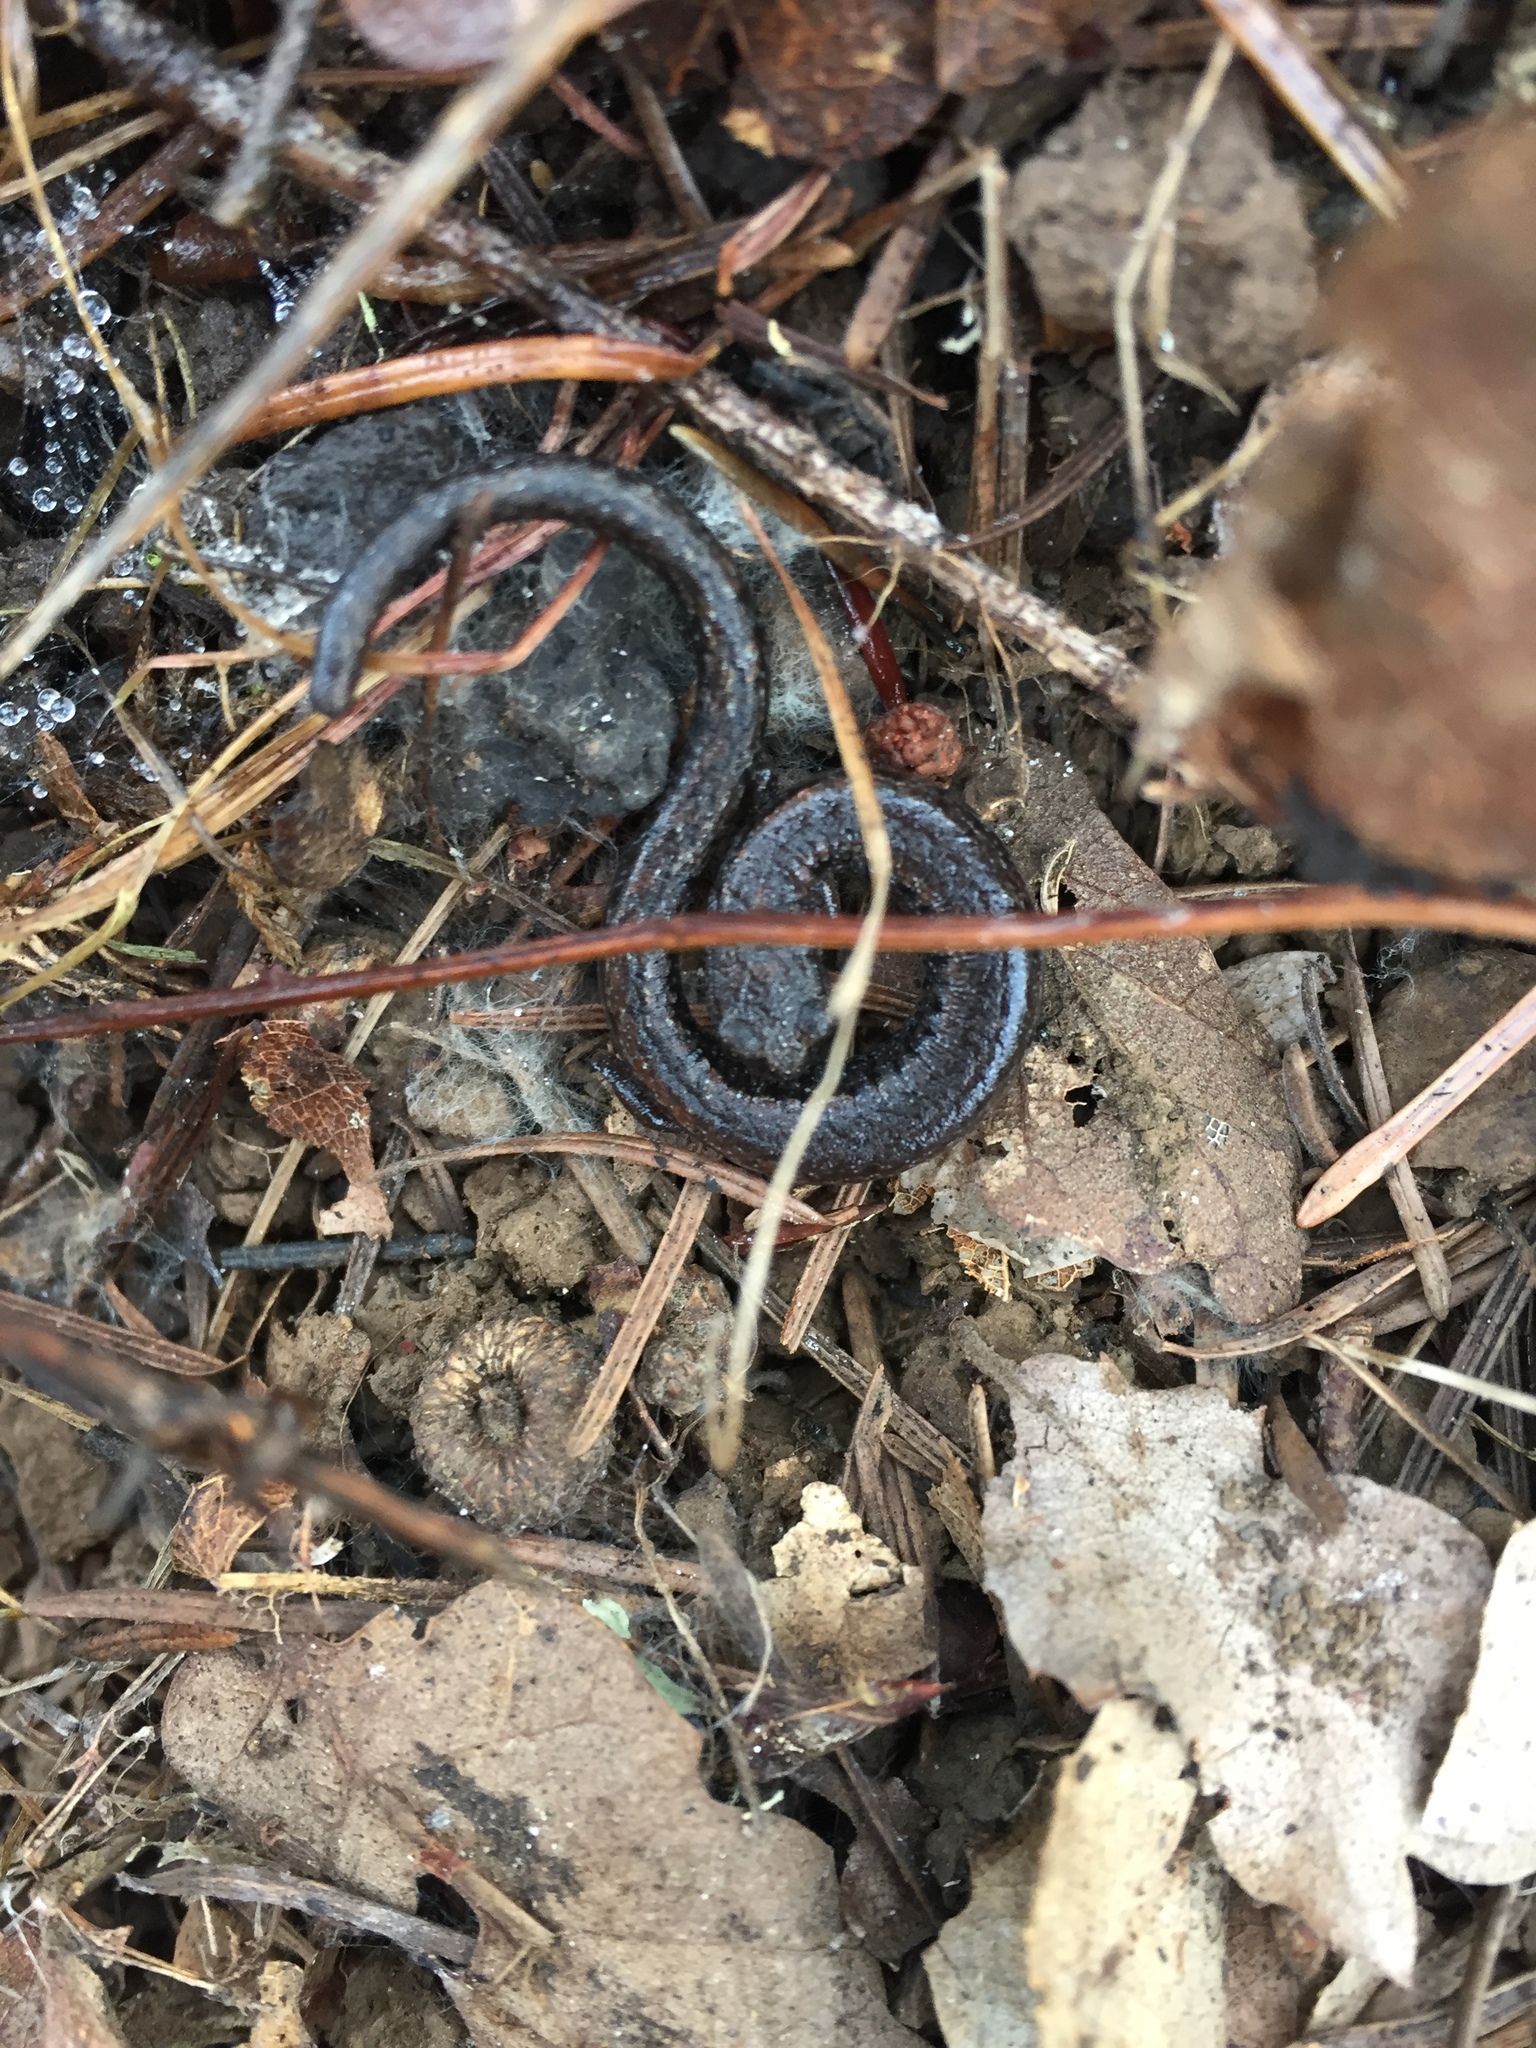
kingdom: Animalia
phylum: Chordata
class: Amphibia
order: Caudata
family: Plethodontidae
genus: Batrachoseps
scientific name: Batrachoseps attenuatus
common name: California slender salamander
